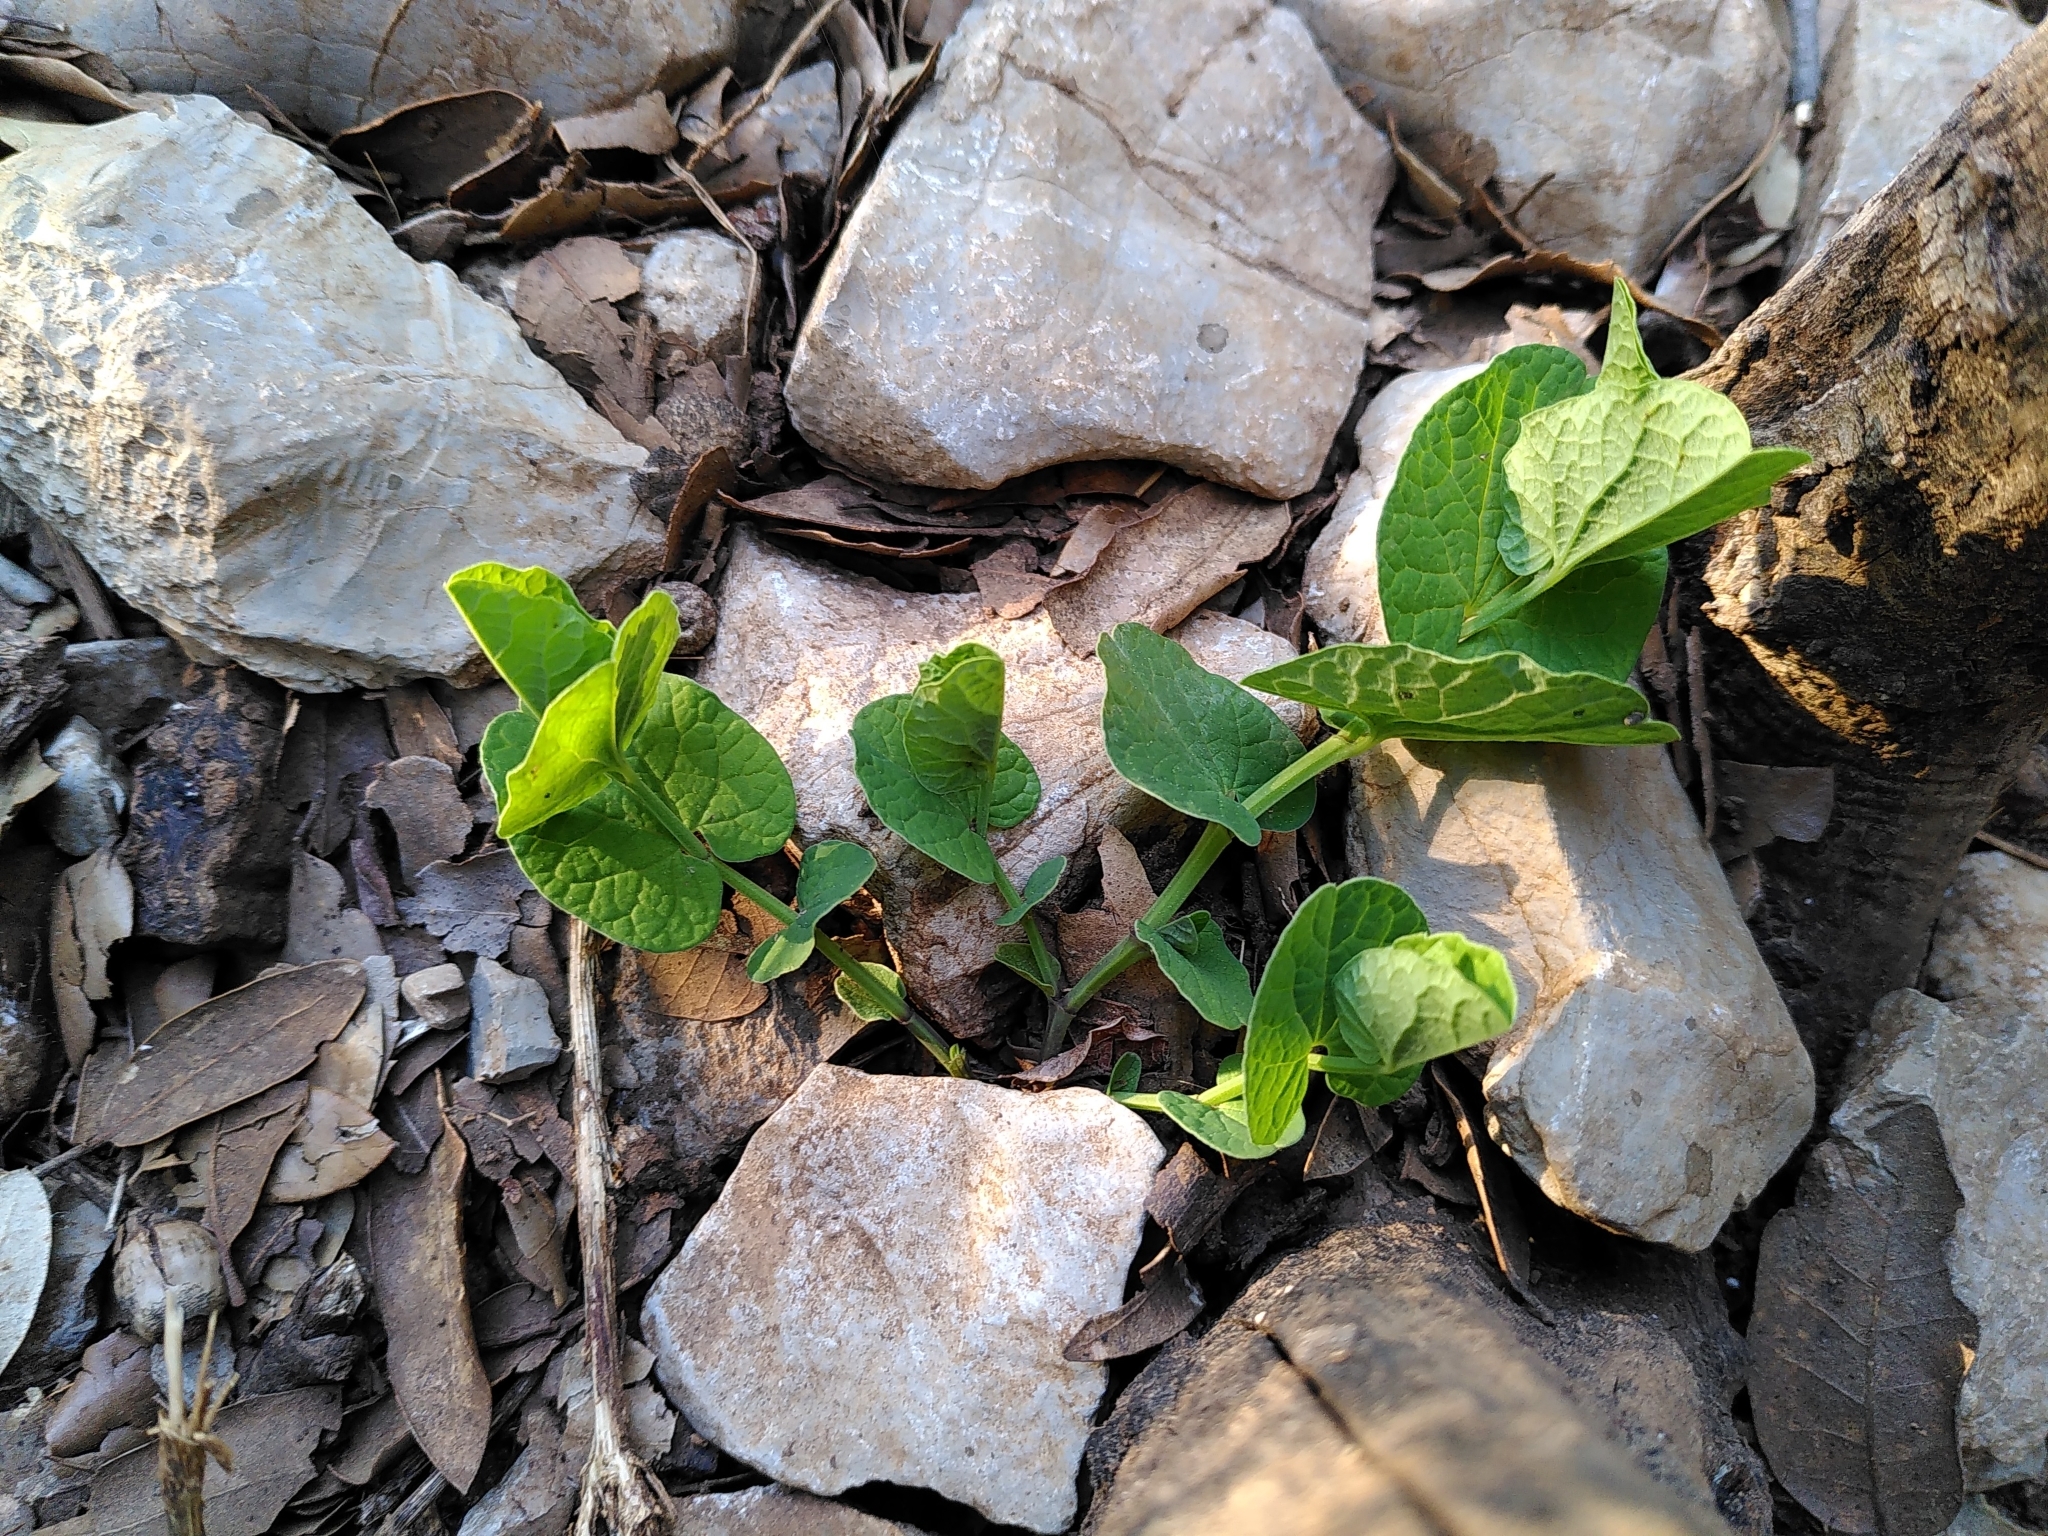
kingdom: Plantae
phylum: Tracheophyta
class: Magnoliopsida
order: Piperales
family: Aristolochiaceae
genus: Aristolochia
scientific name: Aristolochia rotunda
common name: Smearwort
